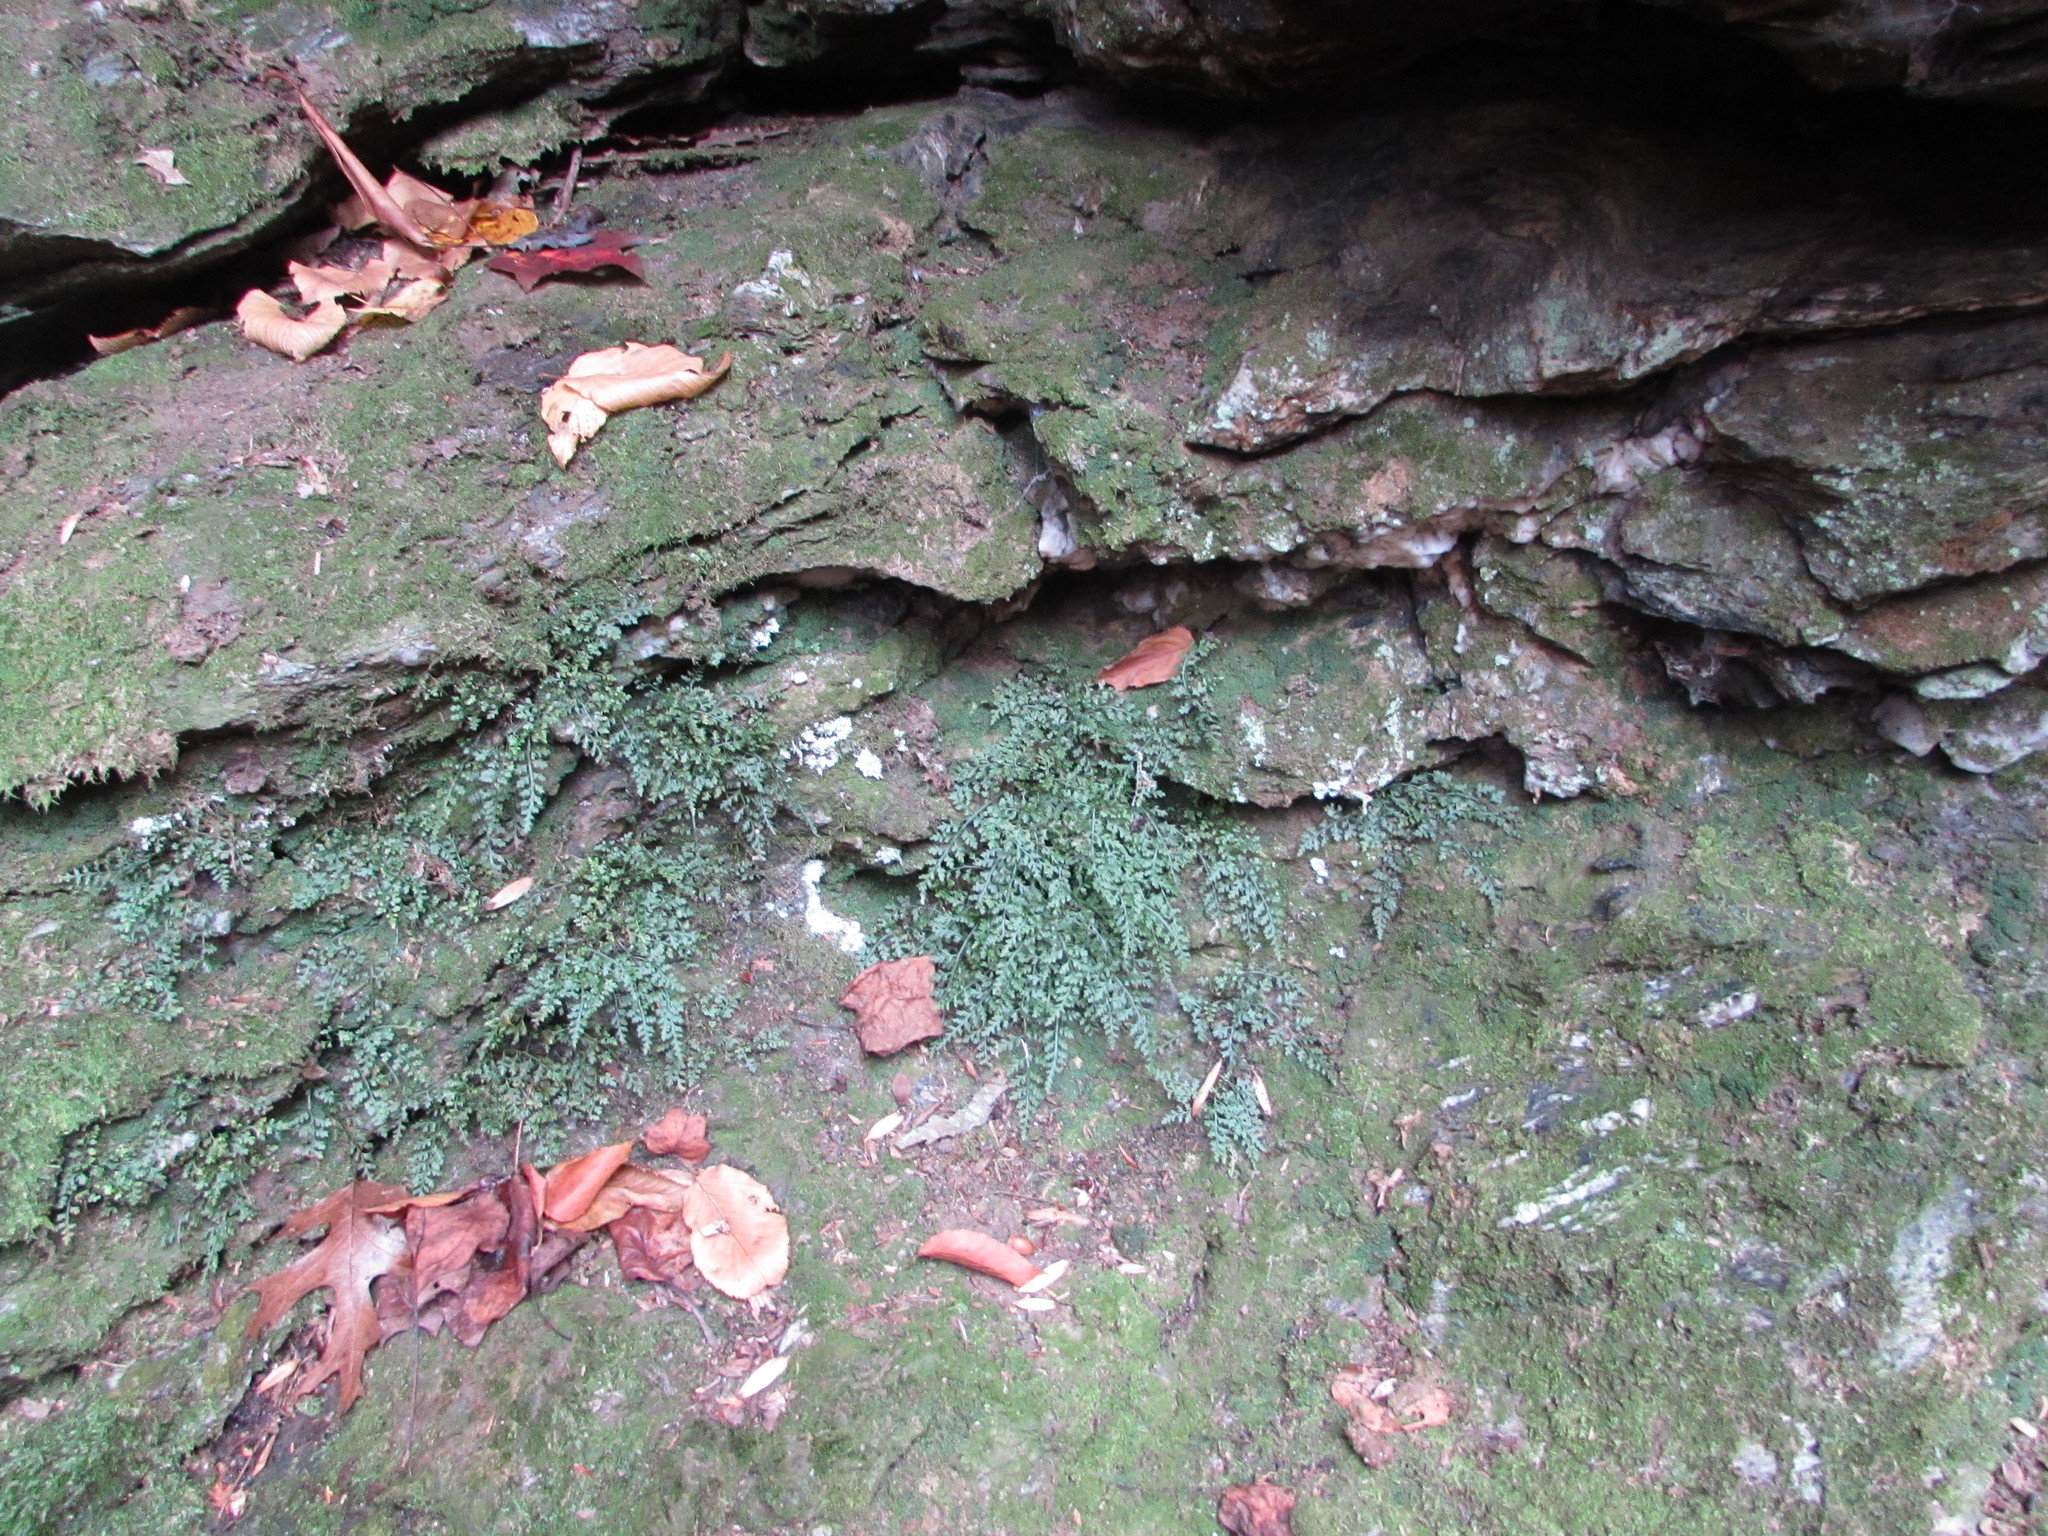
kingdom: Plantae
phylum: Tracheophyta
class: Polypodiopsida
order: Polypodiales
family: Aspleniaceae
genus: Asplenium
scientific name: Asplenium montanum
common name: Mountain spleenwort
